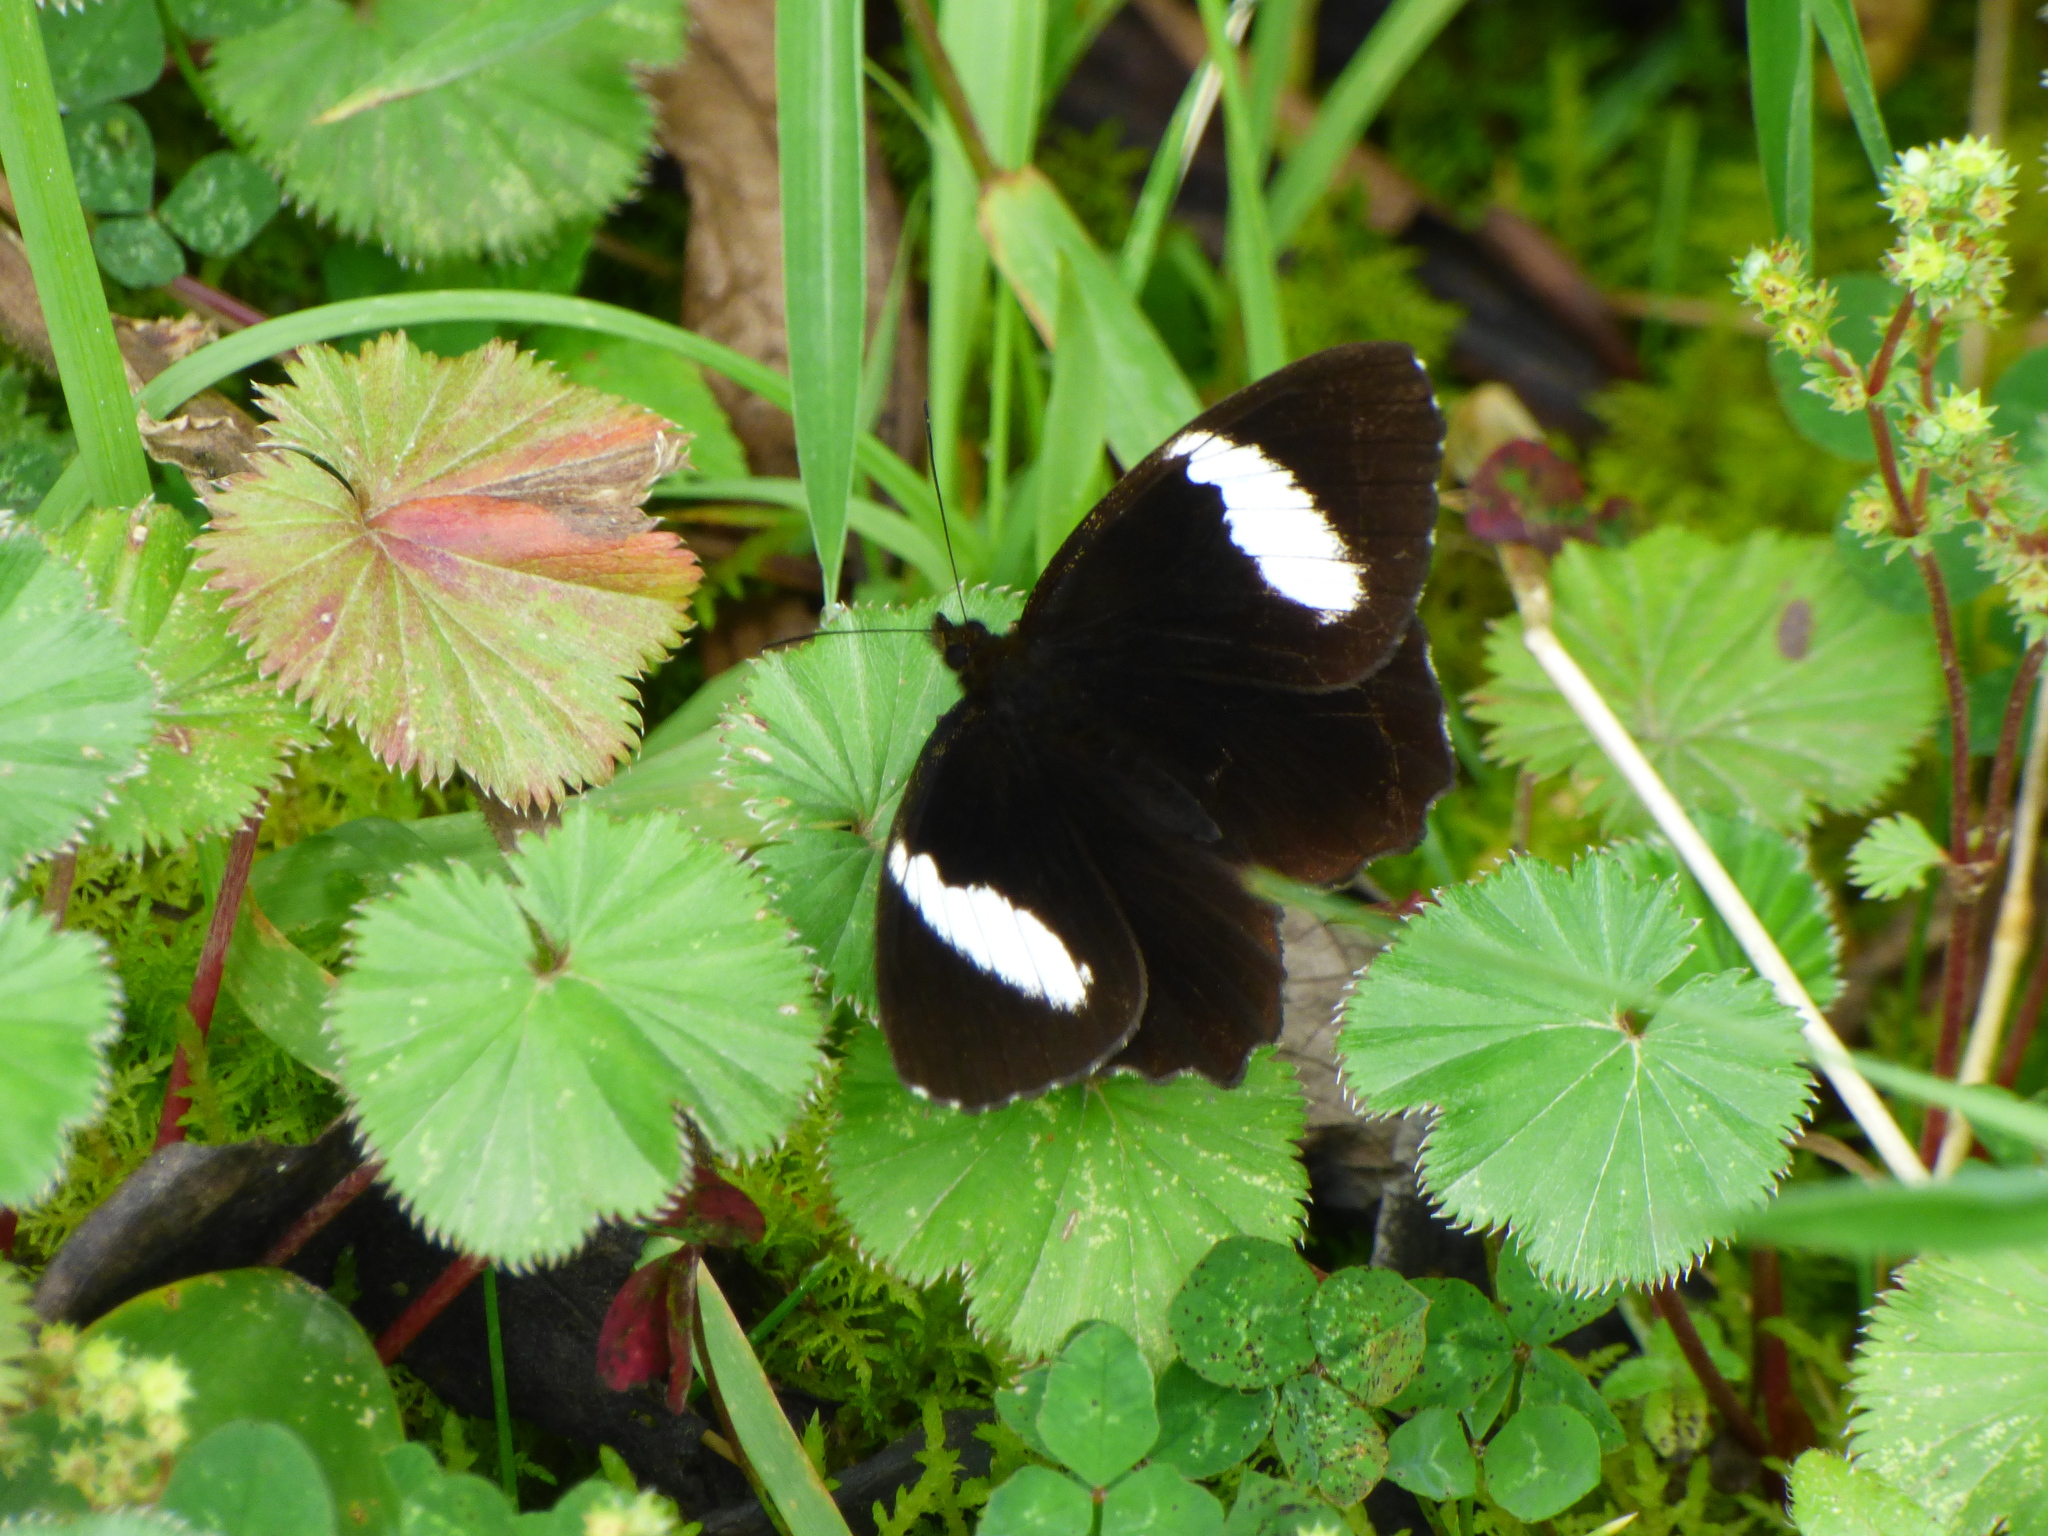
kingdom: Animalia
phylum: Arthropoda
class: Insecta
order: Lepidoptera
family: Nymphalidae
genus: Pedaliodes
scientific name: Pedaliodes peucestas
